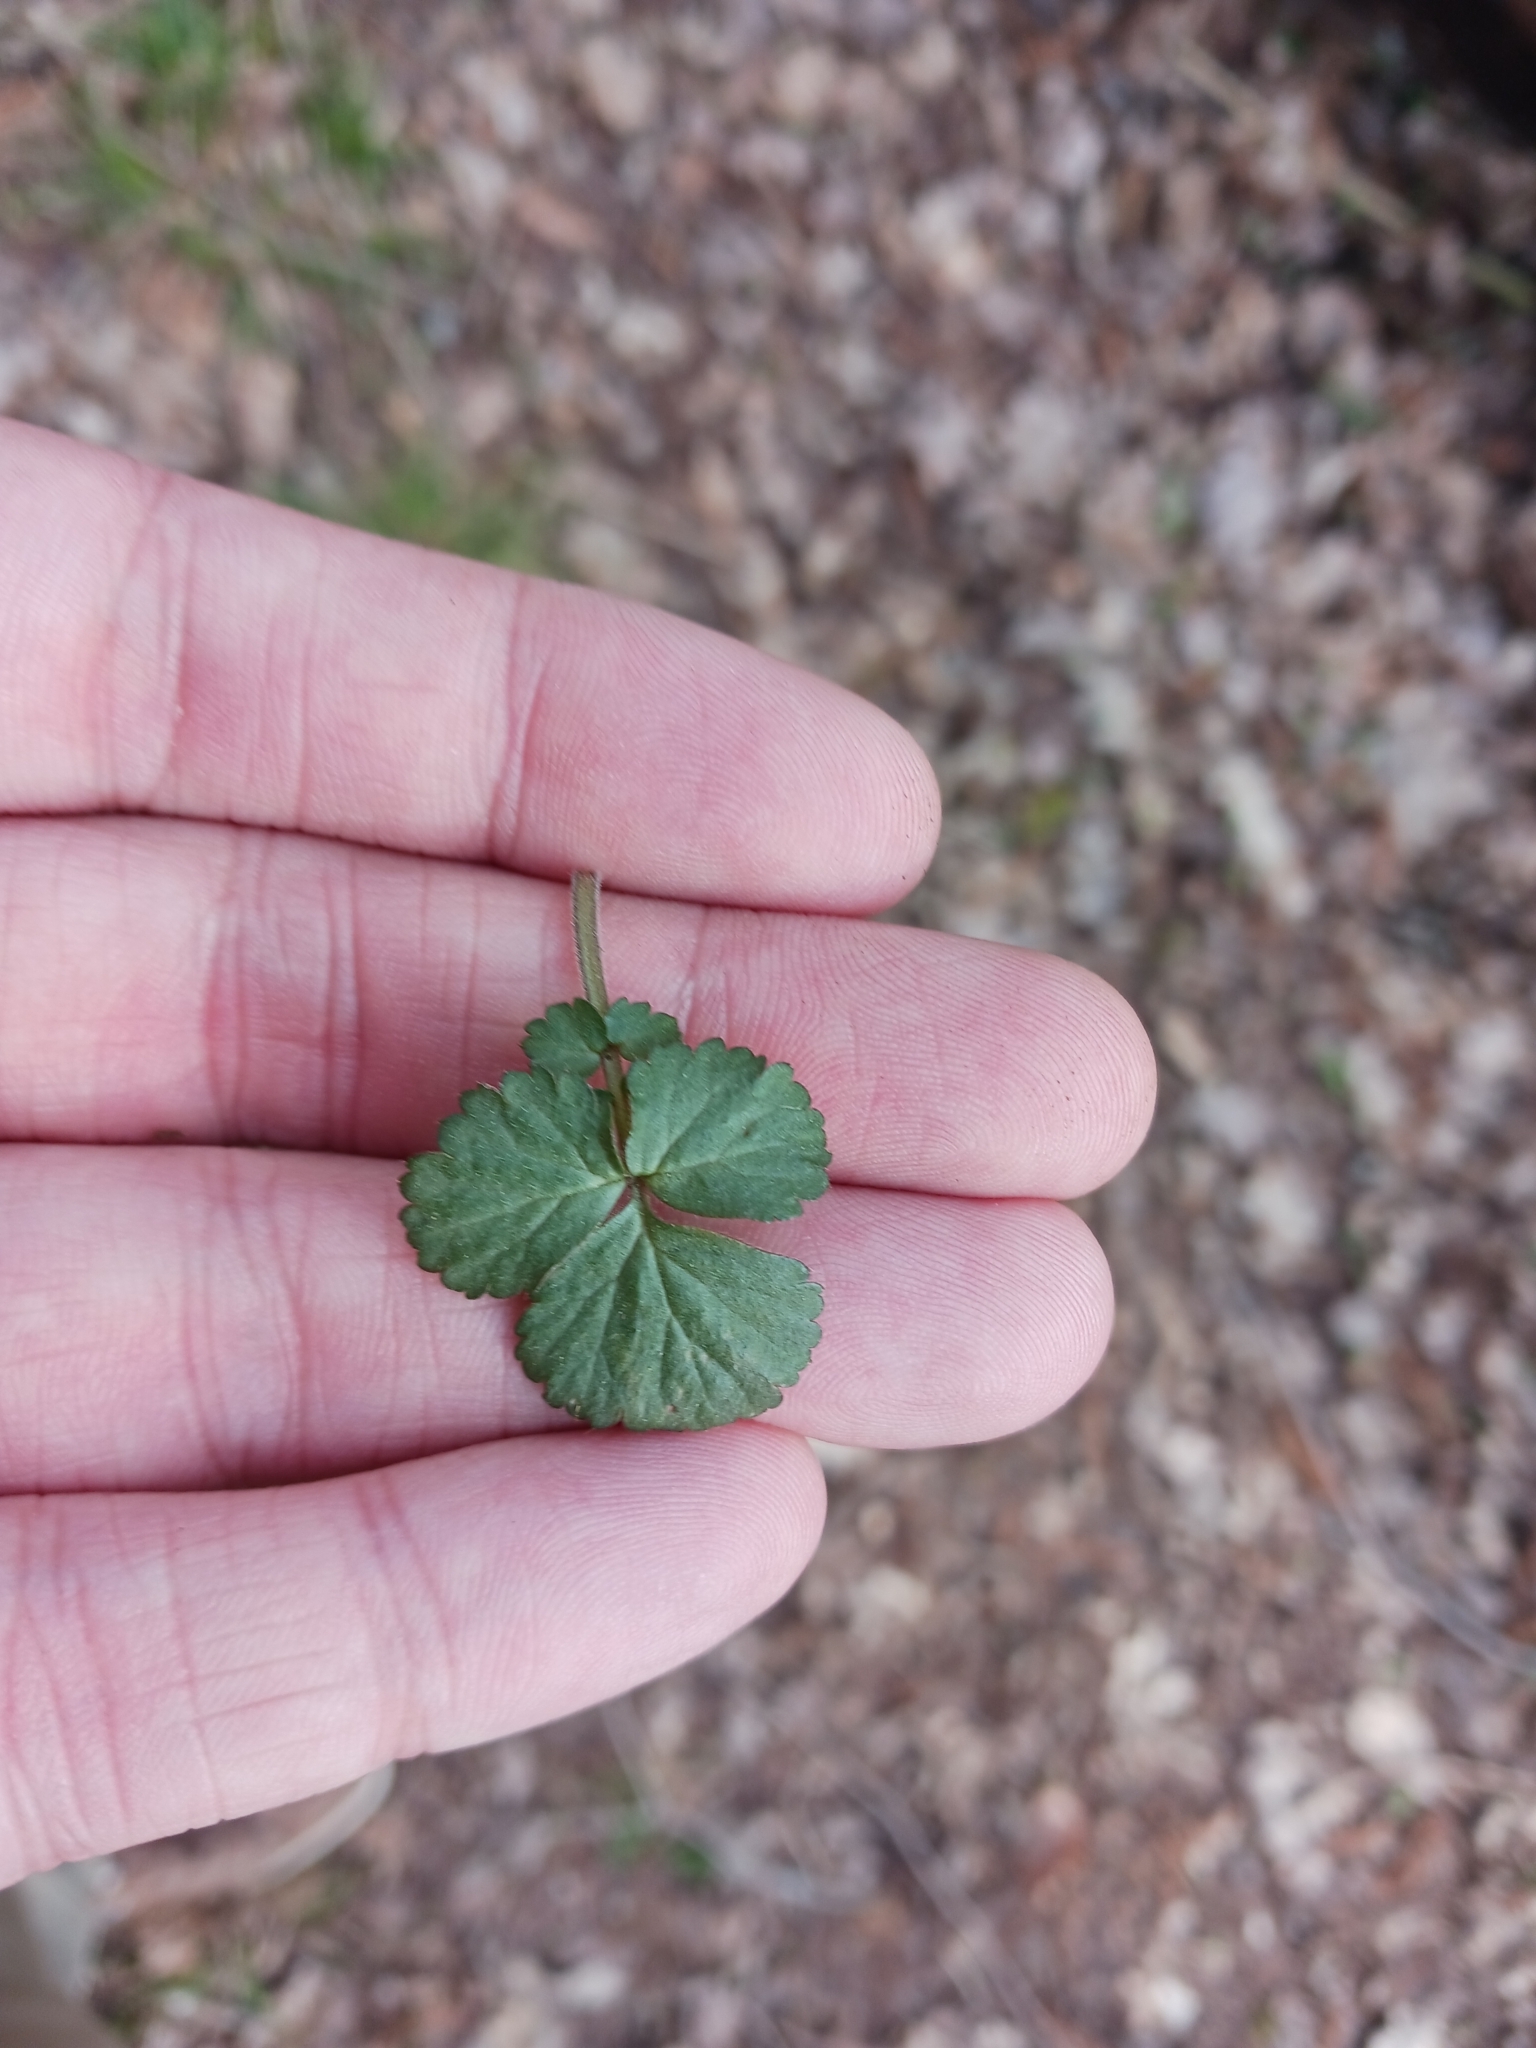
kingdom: Plantae
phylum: Tracheophyta
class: Magnoliopsida
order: Rosales
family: Rosaceae
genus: Geum
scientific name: Geum urbanum
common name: Wood avens
